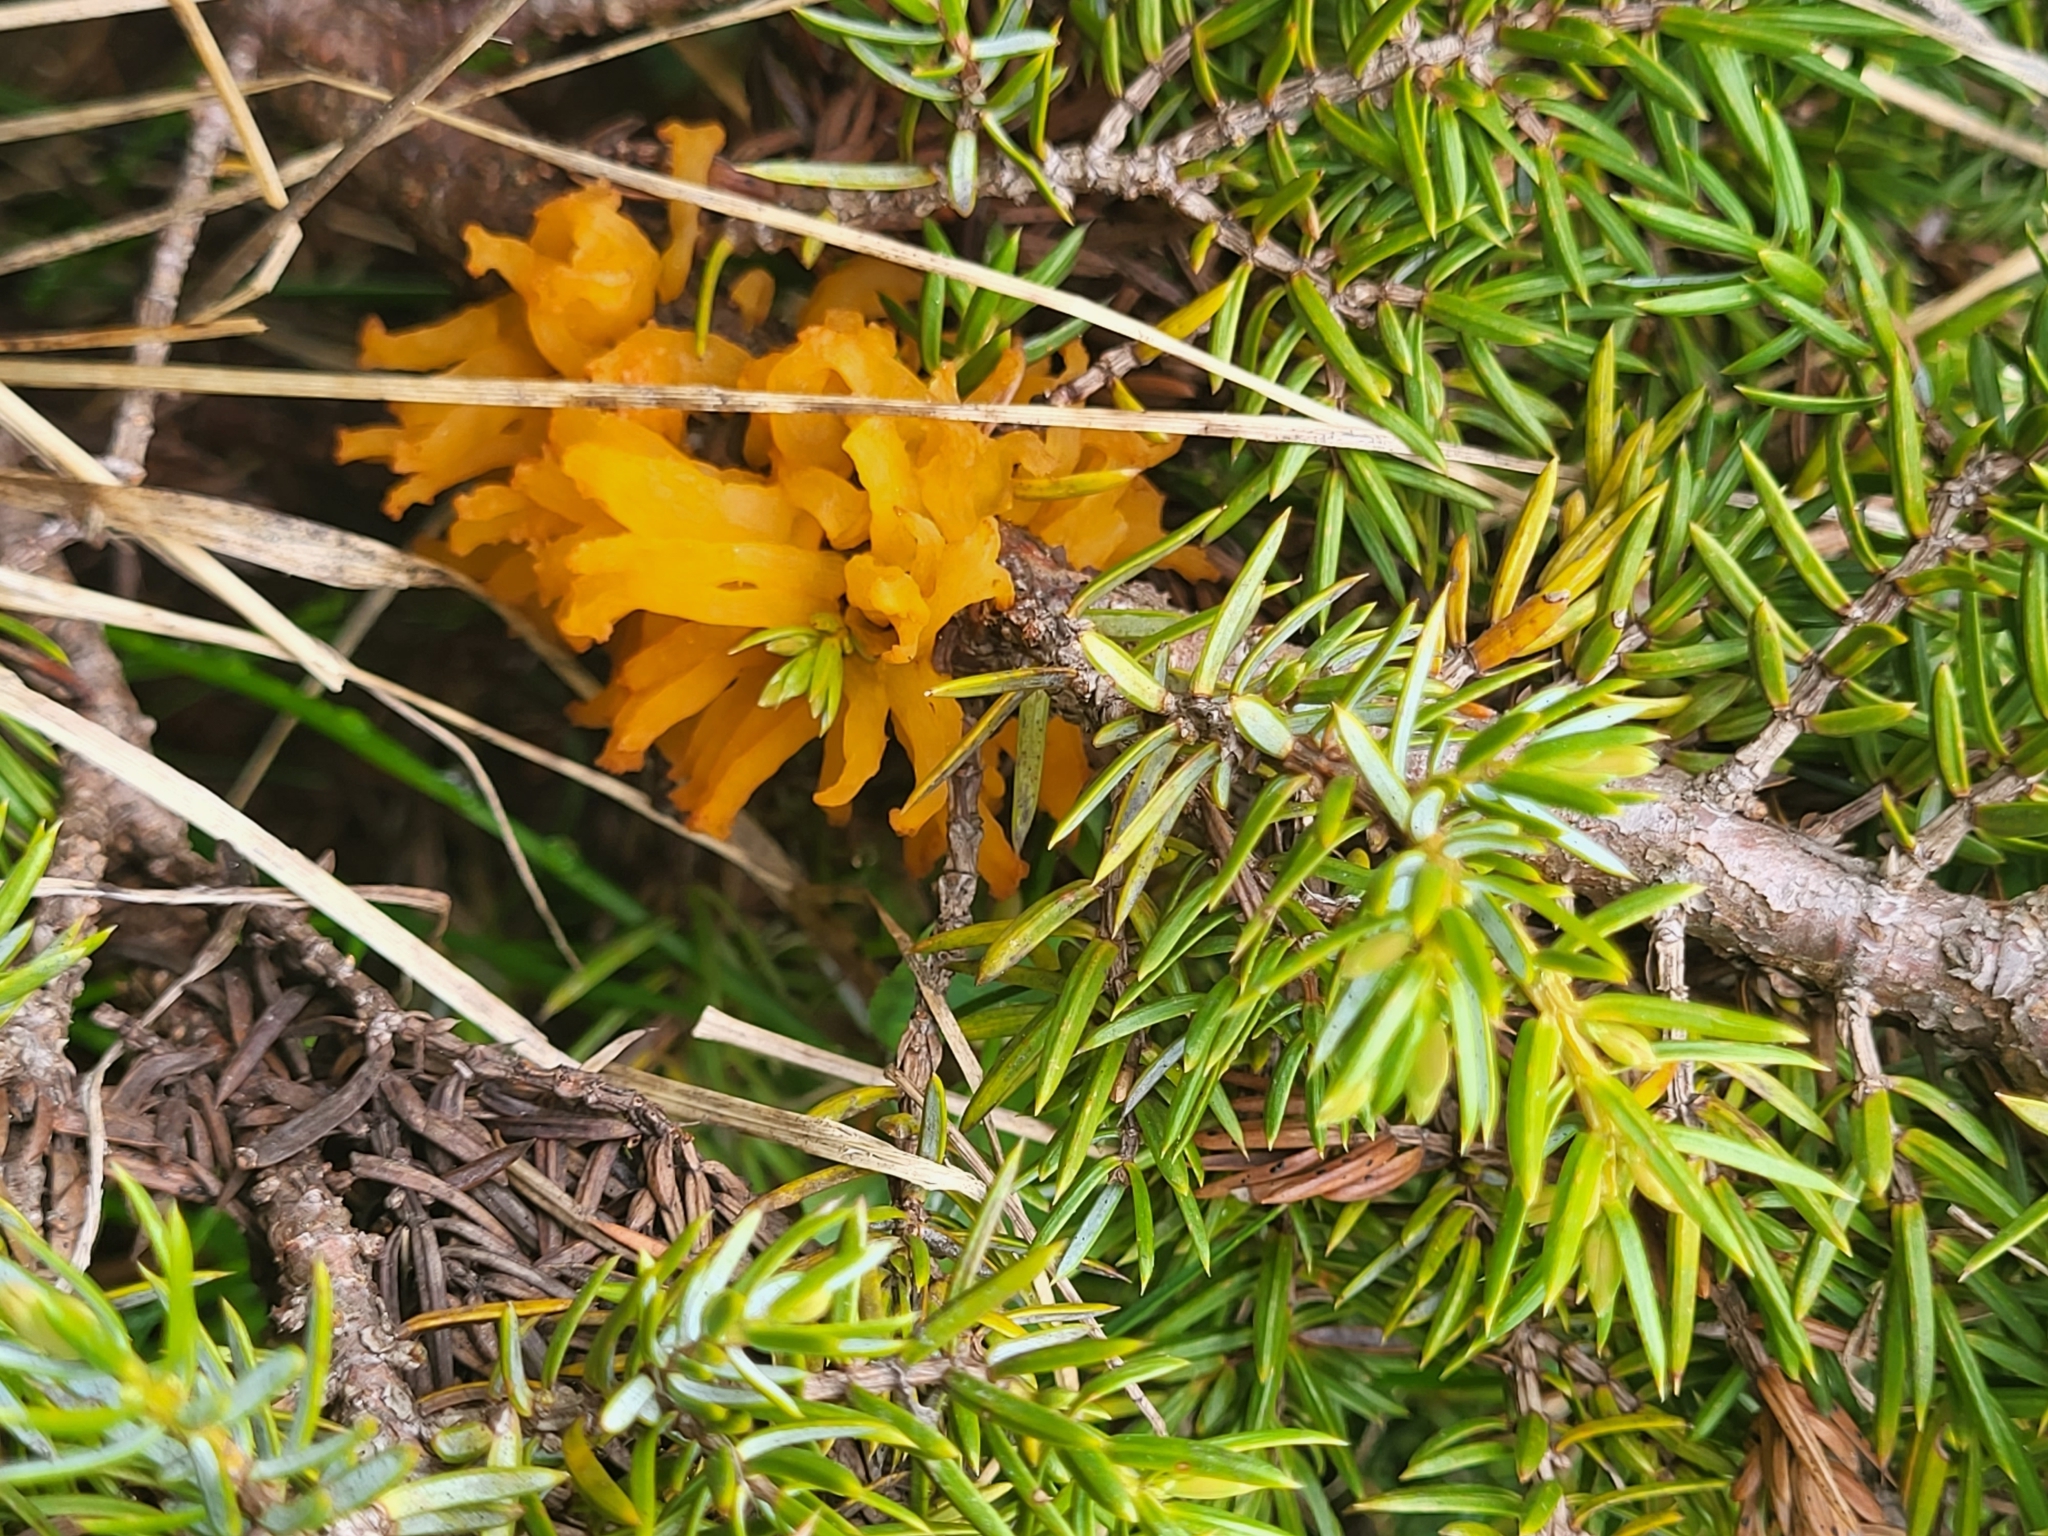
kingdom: Fungi
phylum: Basidiomycota
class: Pucciniomycetes
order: Pucciniales
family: Gymnosporangiaceae
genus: Gymnosporangium
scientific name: Gymnosporangium clavariiforme
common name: Tongues of fire
